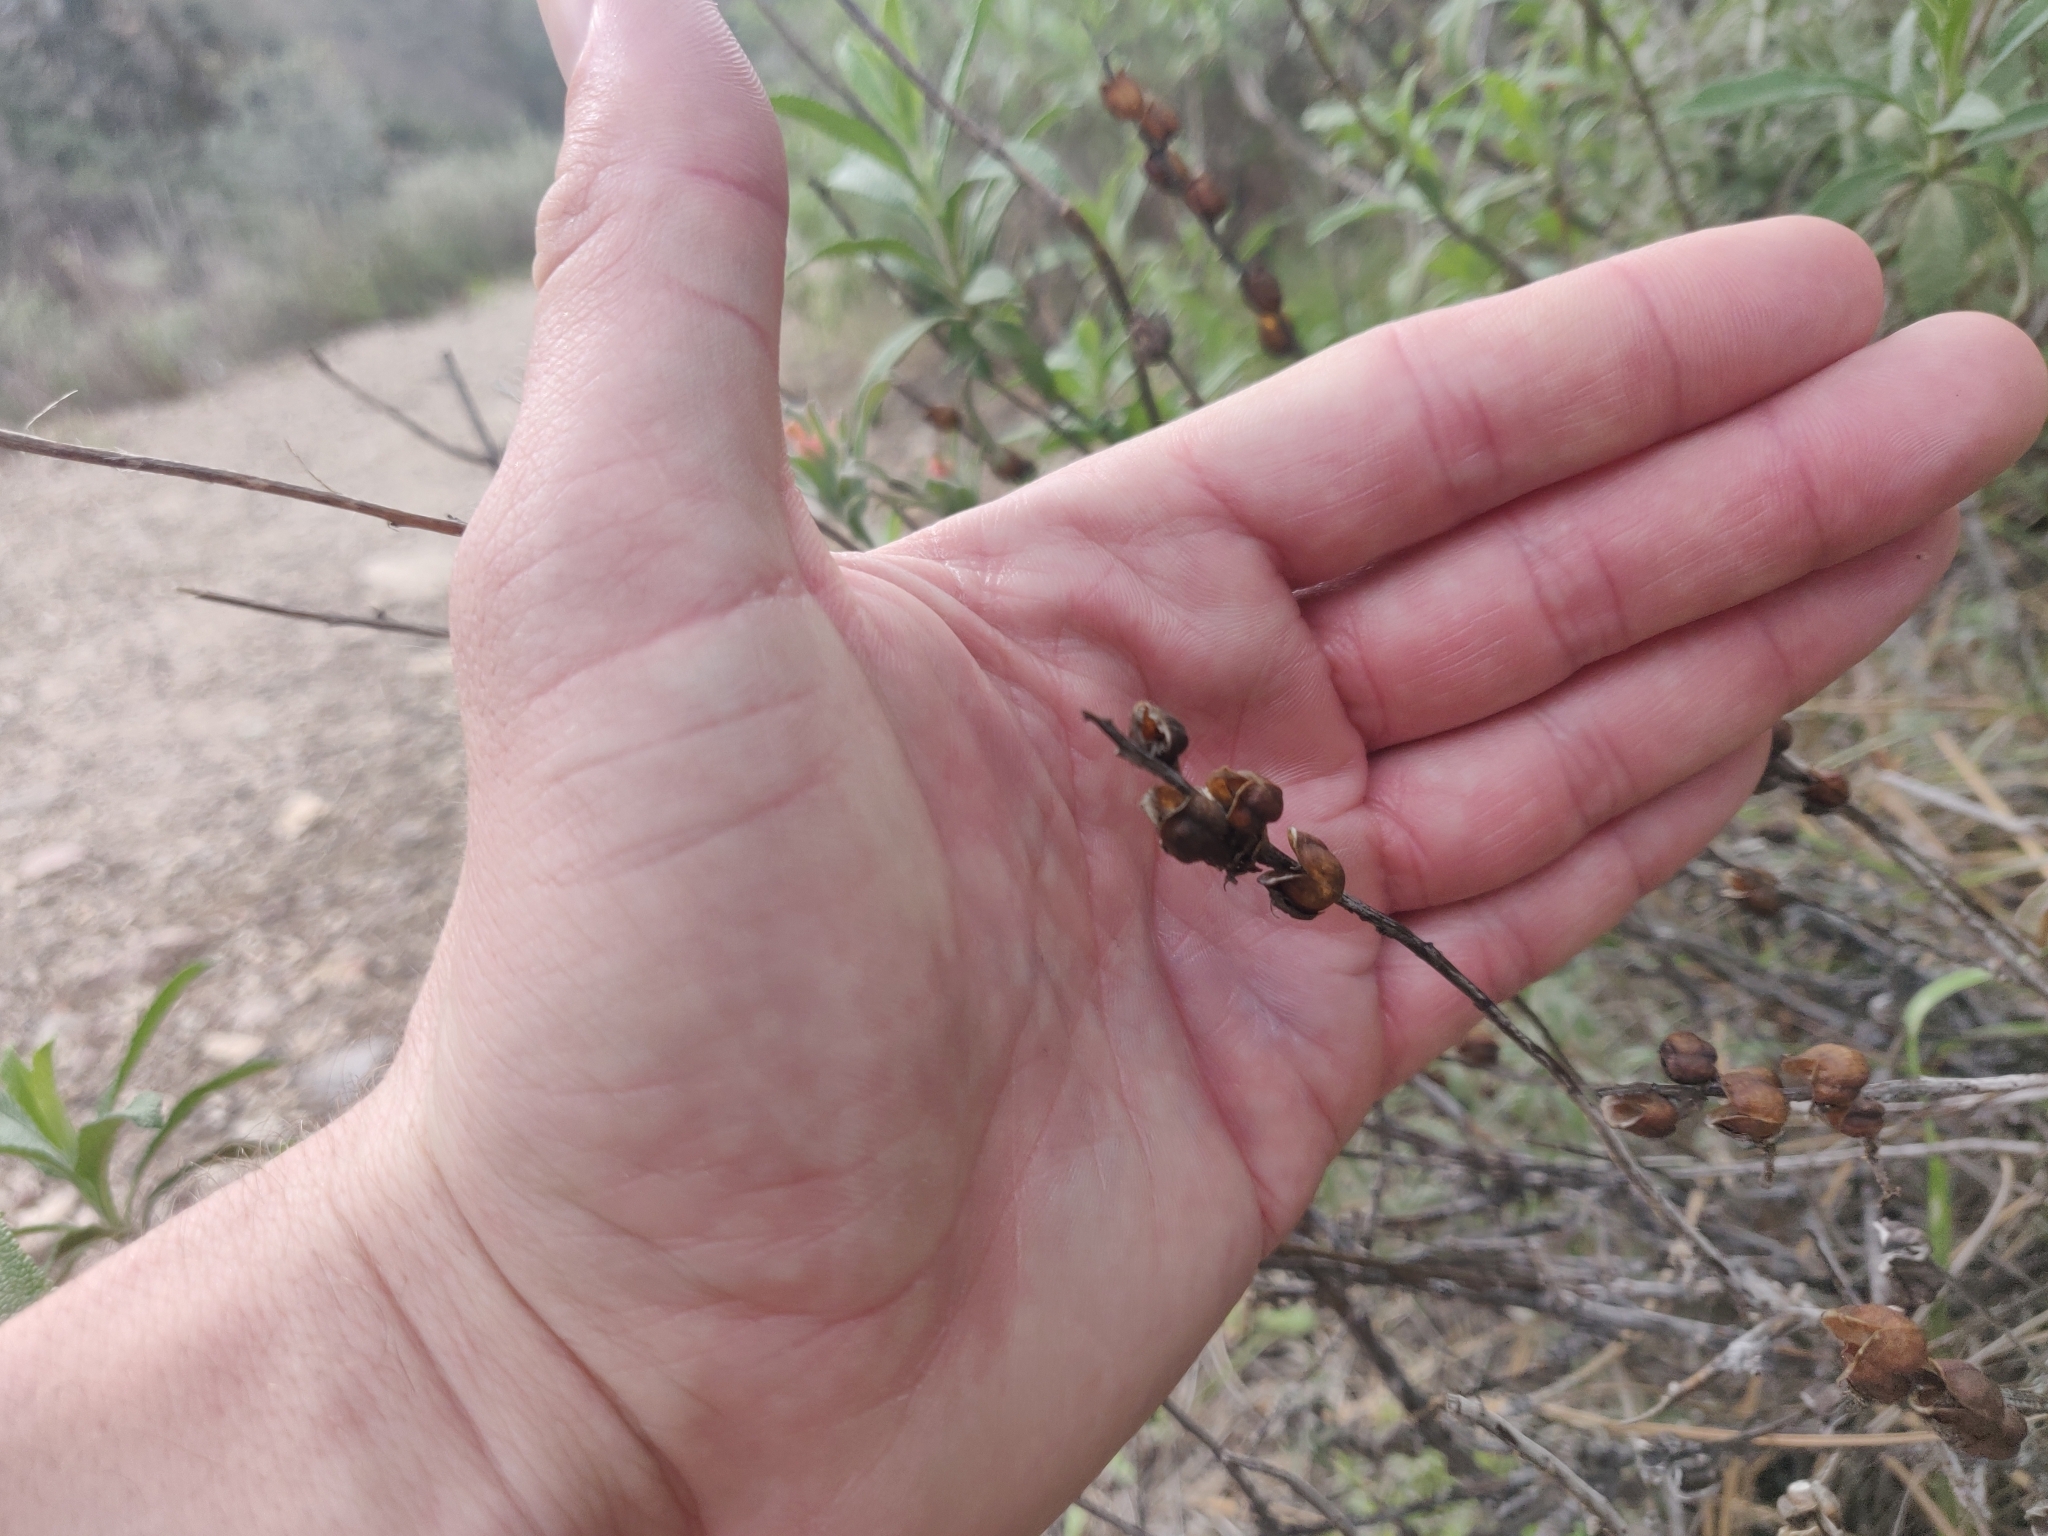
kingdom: Plantae
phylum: Tracheophyta
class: Magnoliopsida
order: Lamiales
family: Orobanchaceae
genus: Castilleja
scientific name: Castilleja foliolosa
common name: Woolly indian paintbrush
